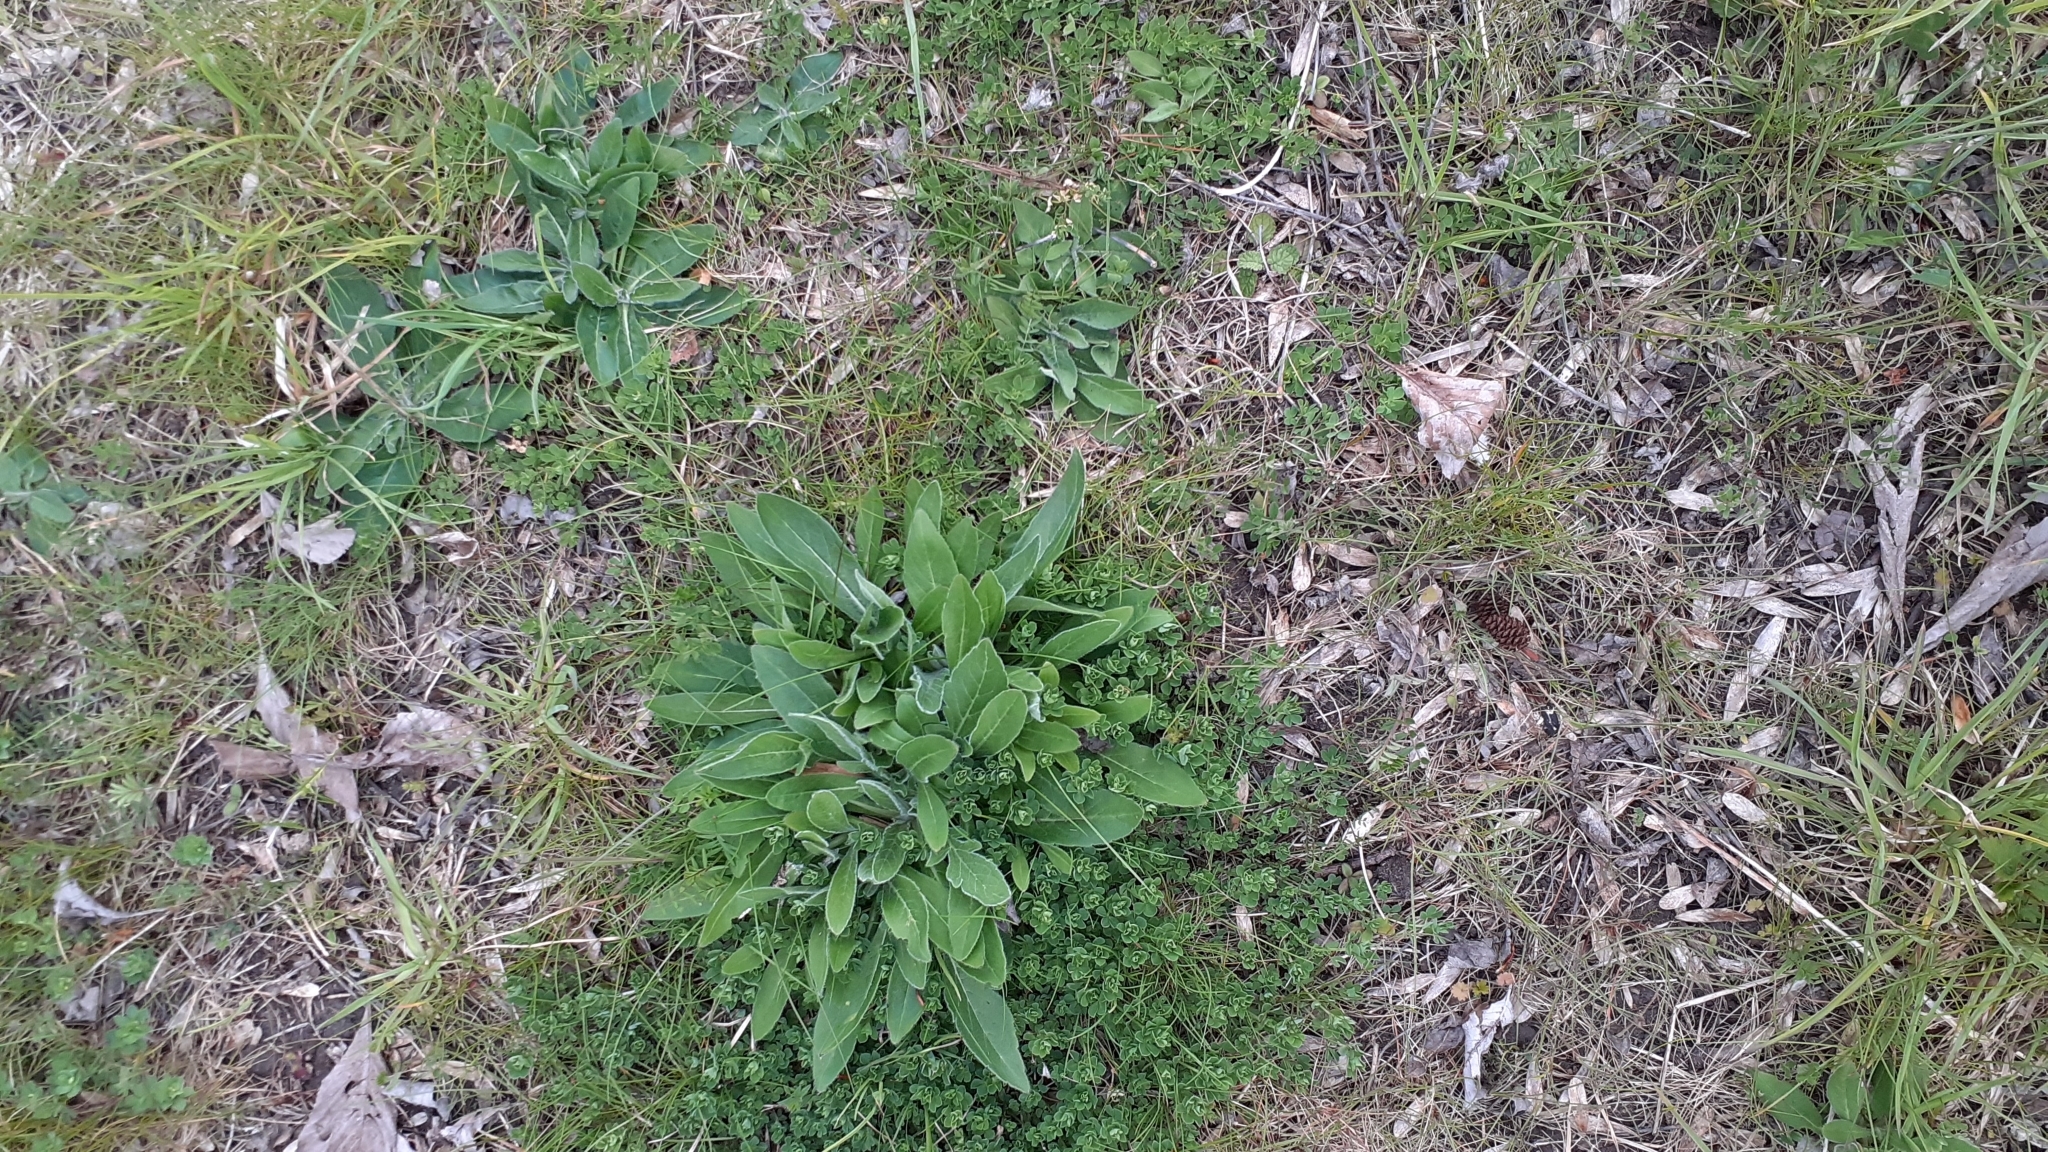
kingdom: Plantae
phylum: Tracheophyta
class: Magnoliopsida
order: Dipsacales
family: Caprifoliaceae
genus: Knautia
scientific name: Knautia arvensis
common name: Field scabiosa
